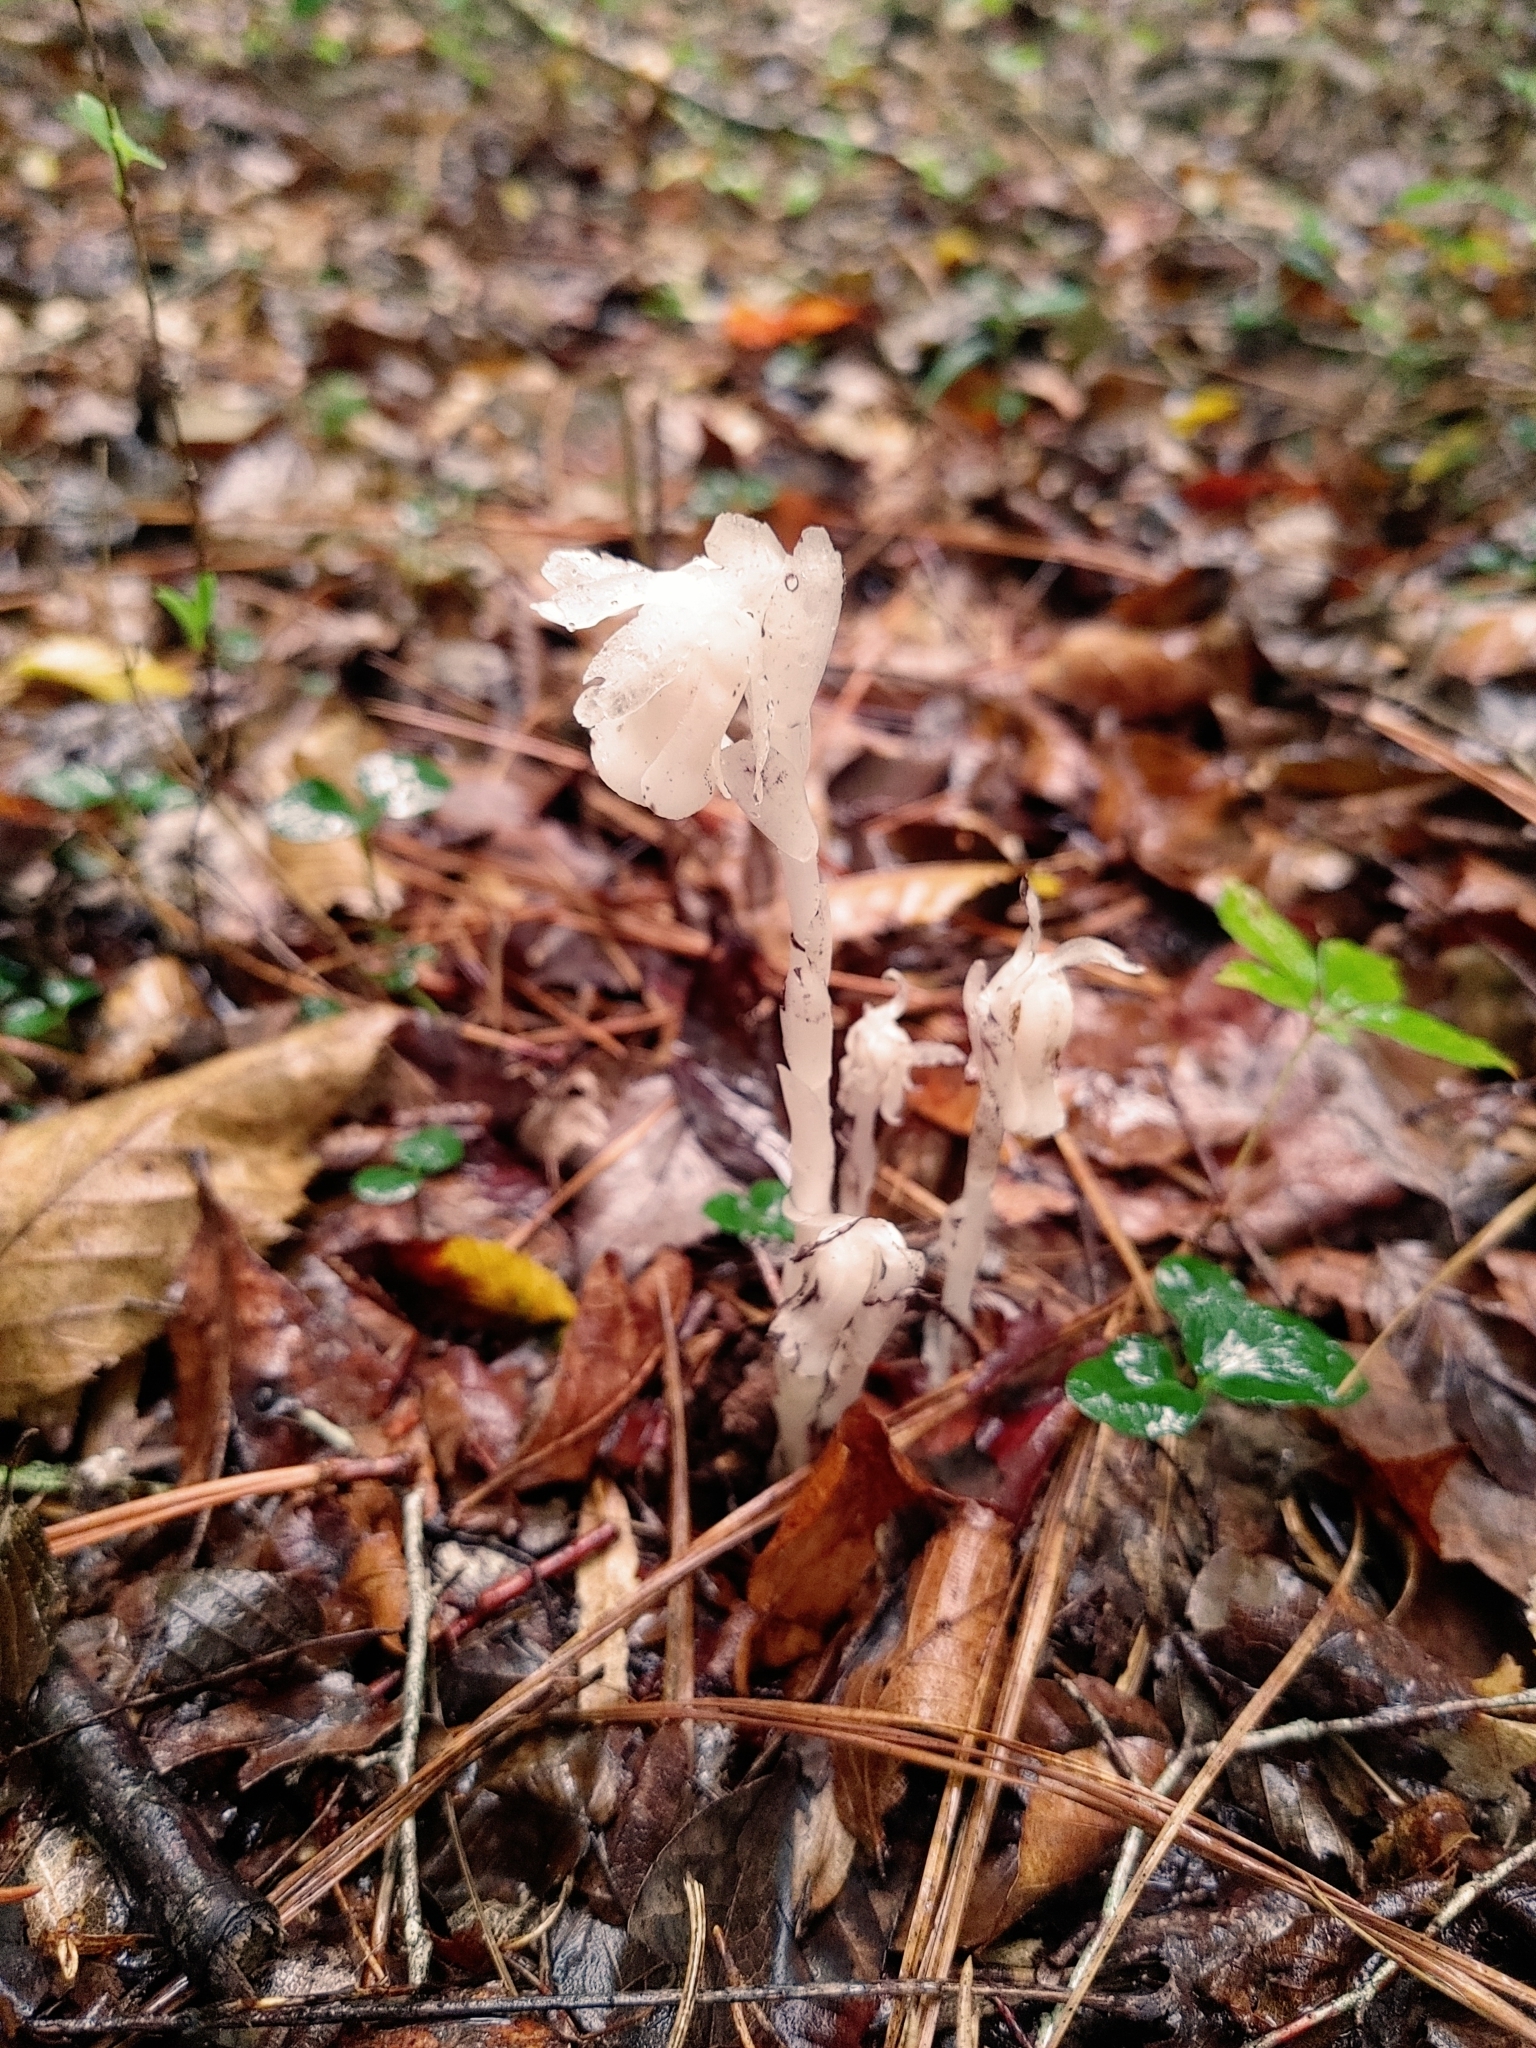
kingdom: Plantae
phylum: Tracheophyta
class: Magnoliopsida
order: Ericales
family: Ericaceae
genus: Monotropa
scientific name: Monotropa uniflora
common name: Convulsion root
